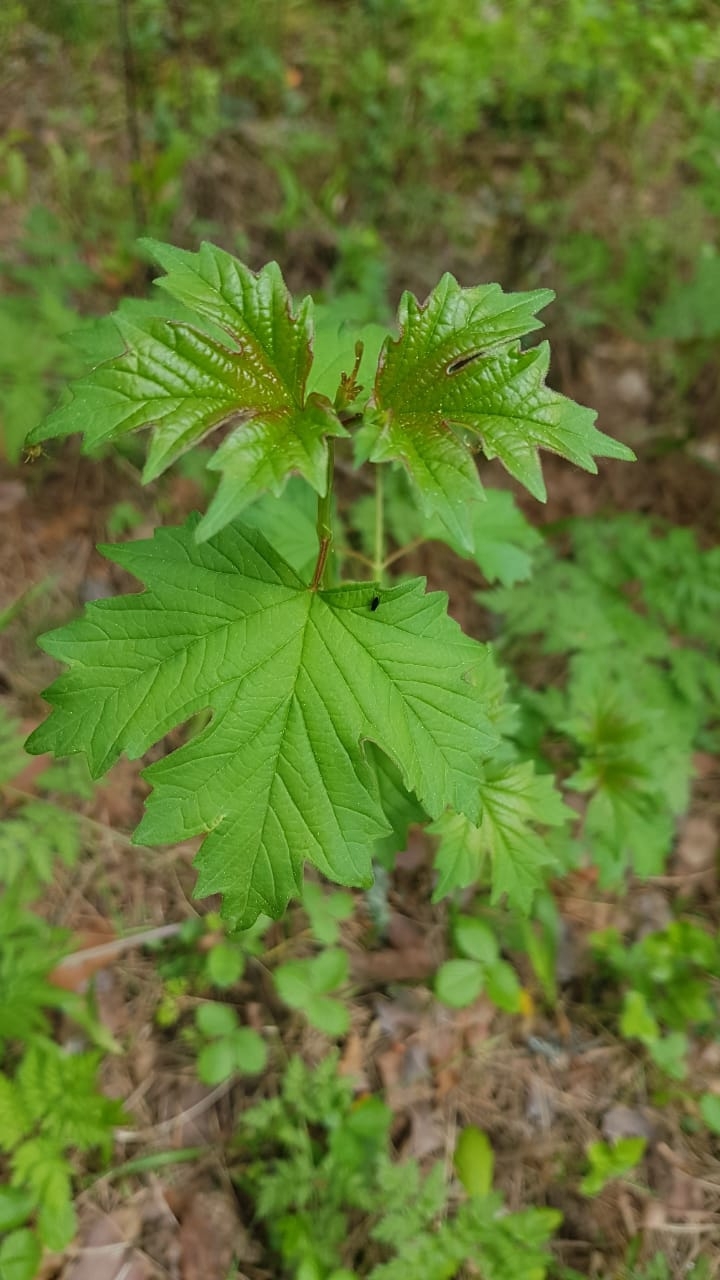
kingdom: Plantae
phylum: Tracheophyta
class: Magnoliopsida
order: Dipsacales
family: Viburnaceae
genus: Viburnum
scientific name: Viburnum opulus
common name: Guelder-rose
